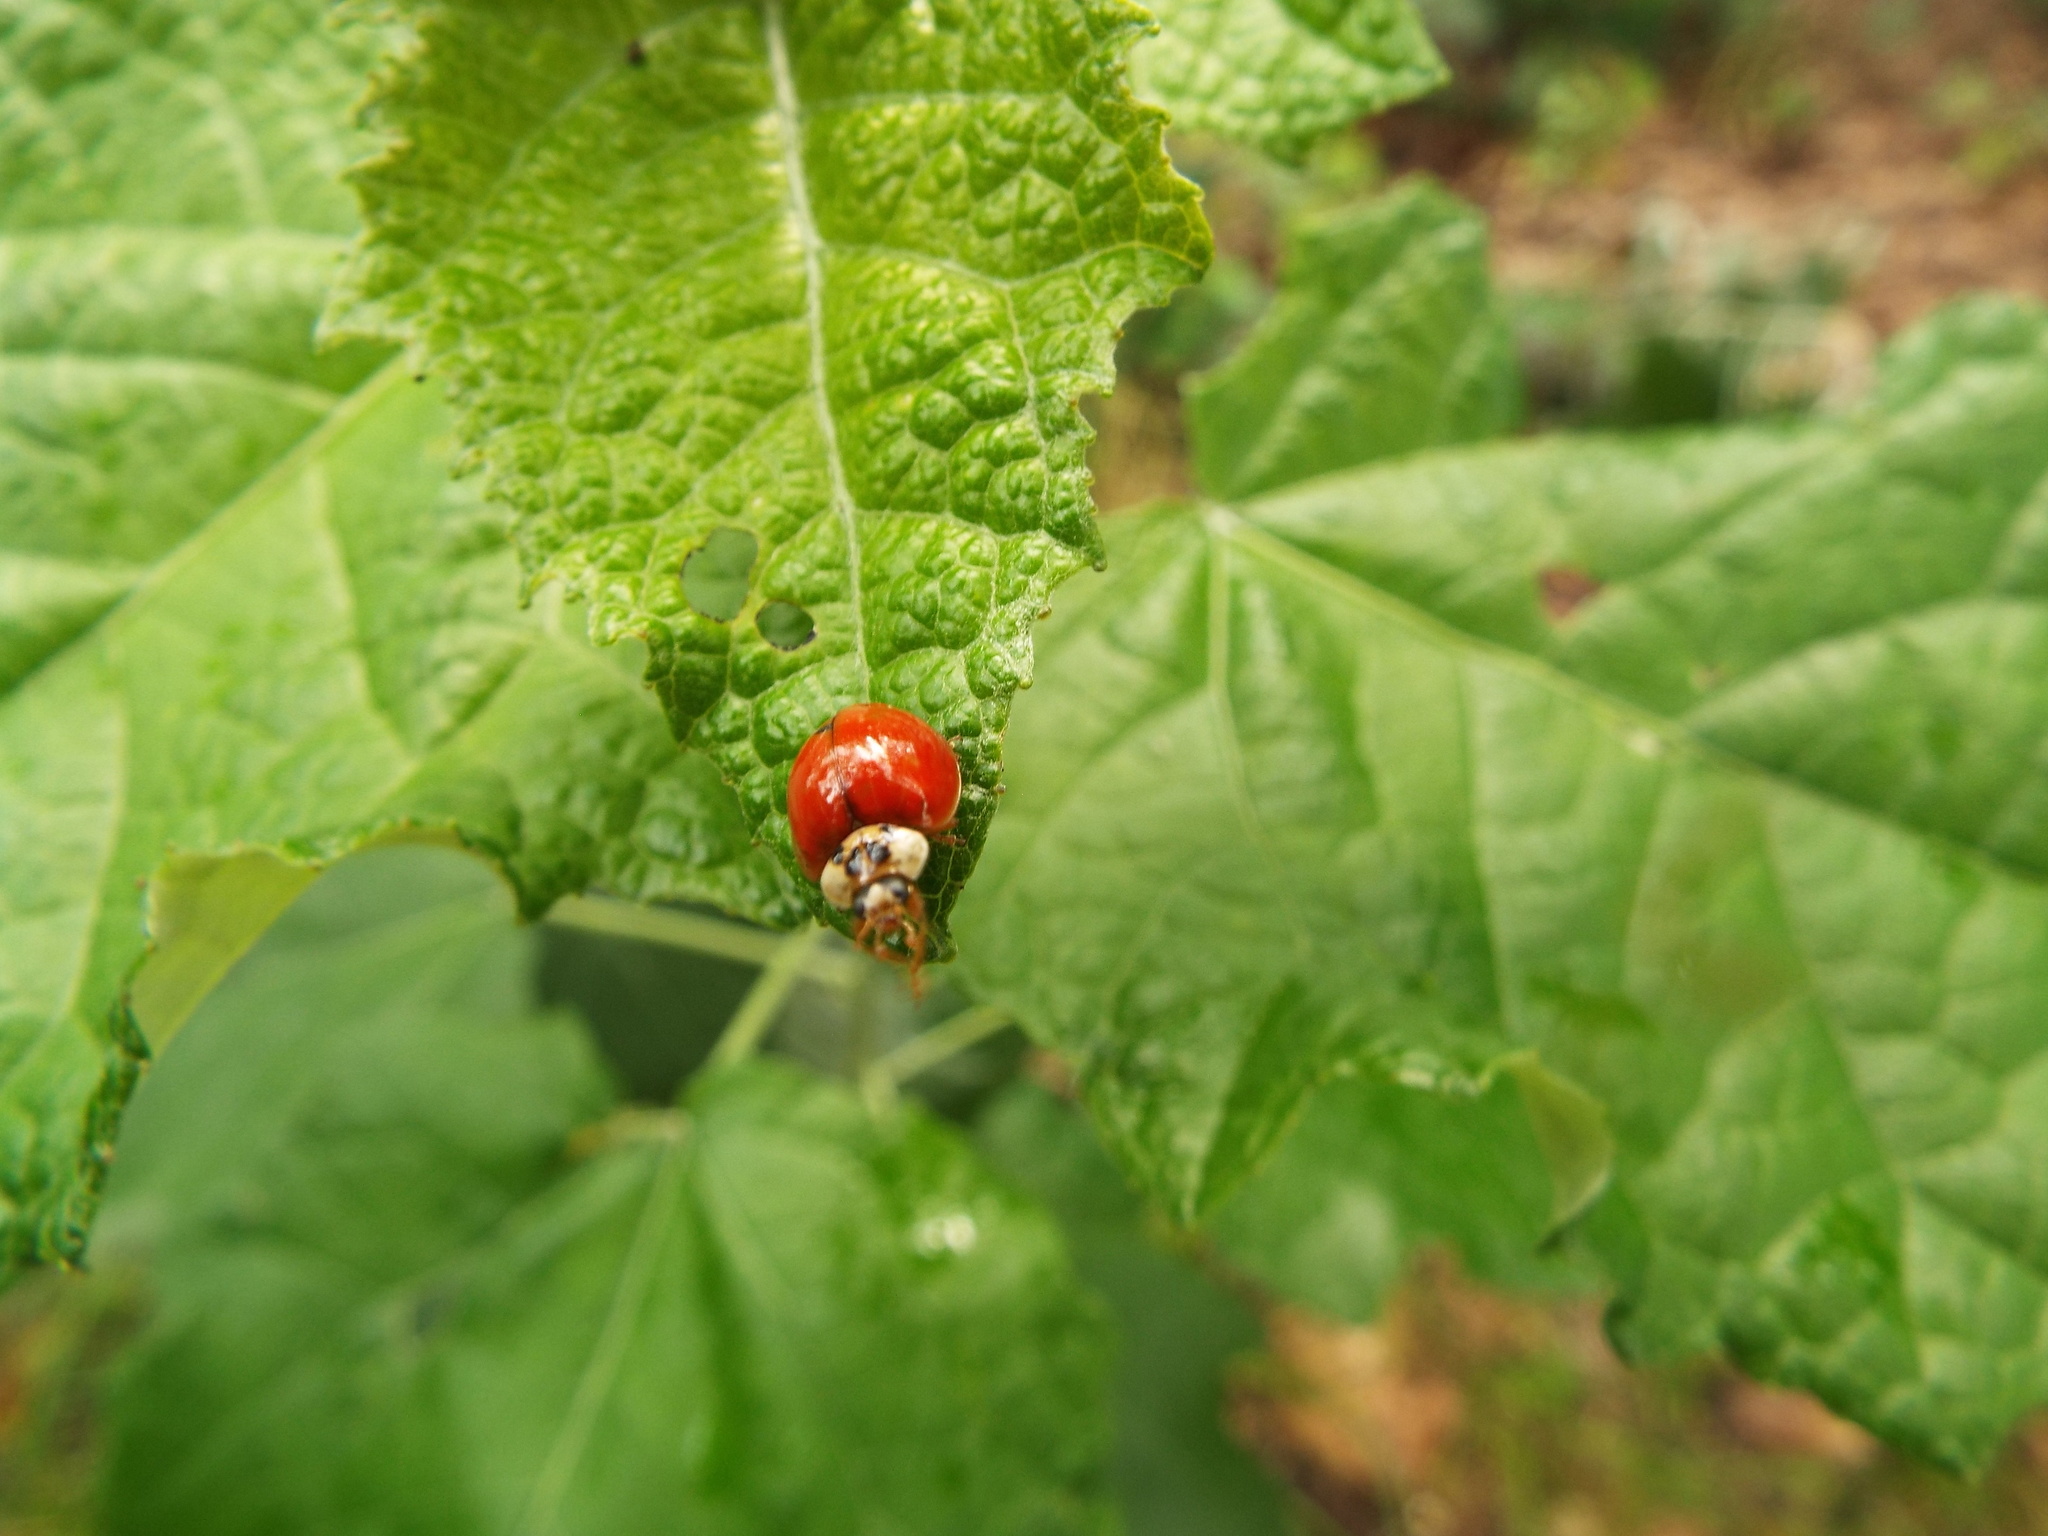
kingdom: Animalia
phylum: Arthropoda
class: Insecta
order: Coleoptera
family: Coccinellidae
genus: Harmonia
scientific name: Harmonia axyridis
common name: Harlequin ladybird
